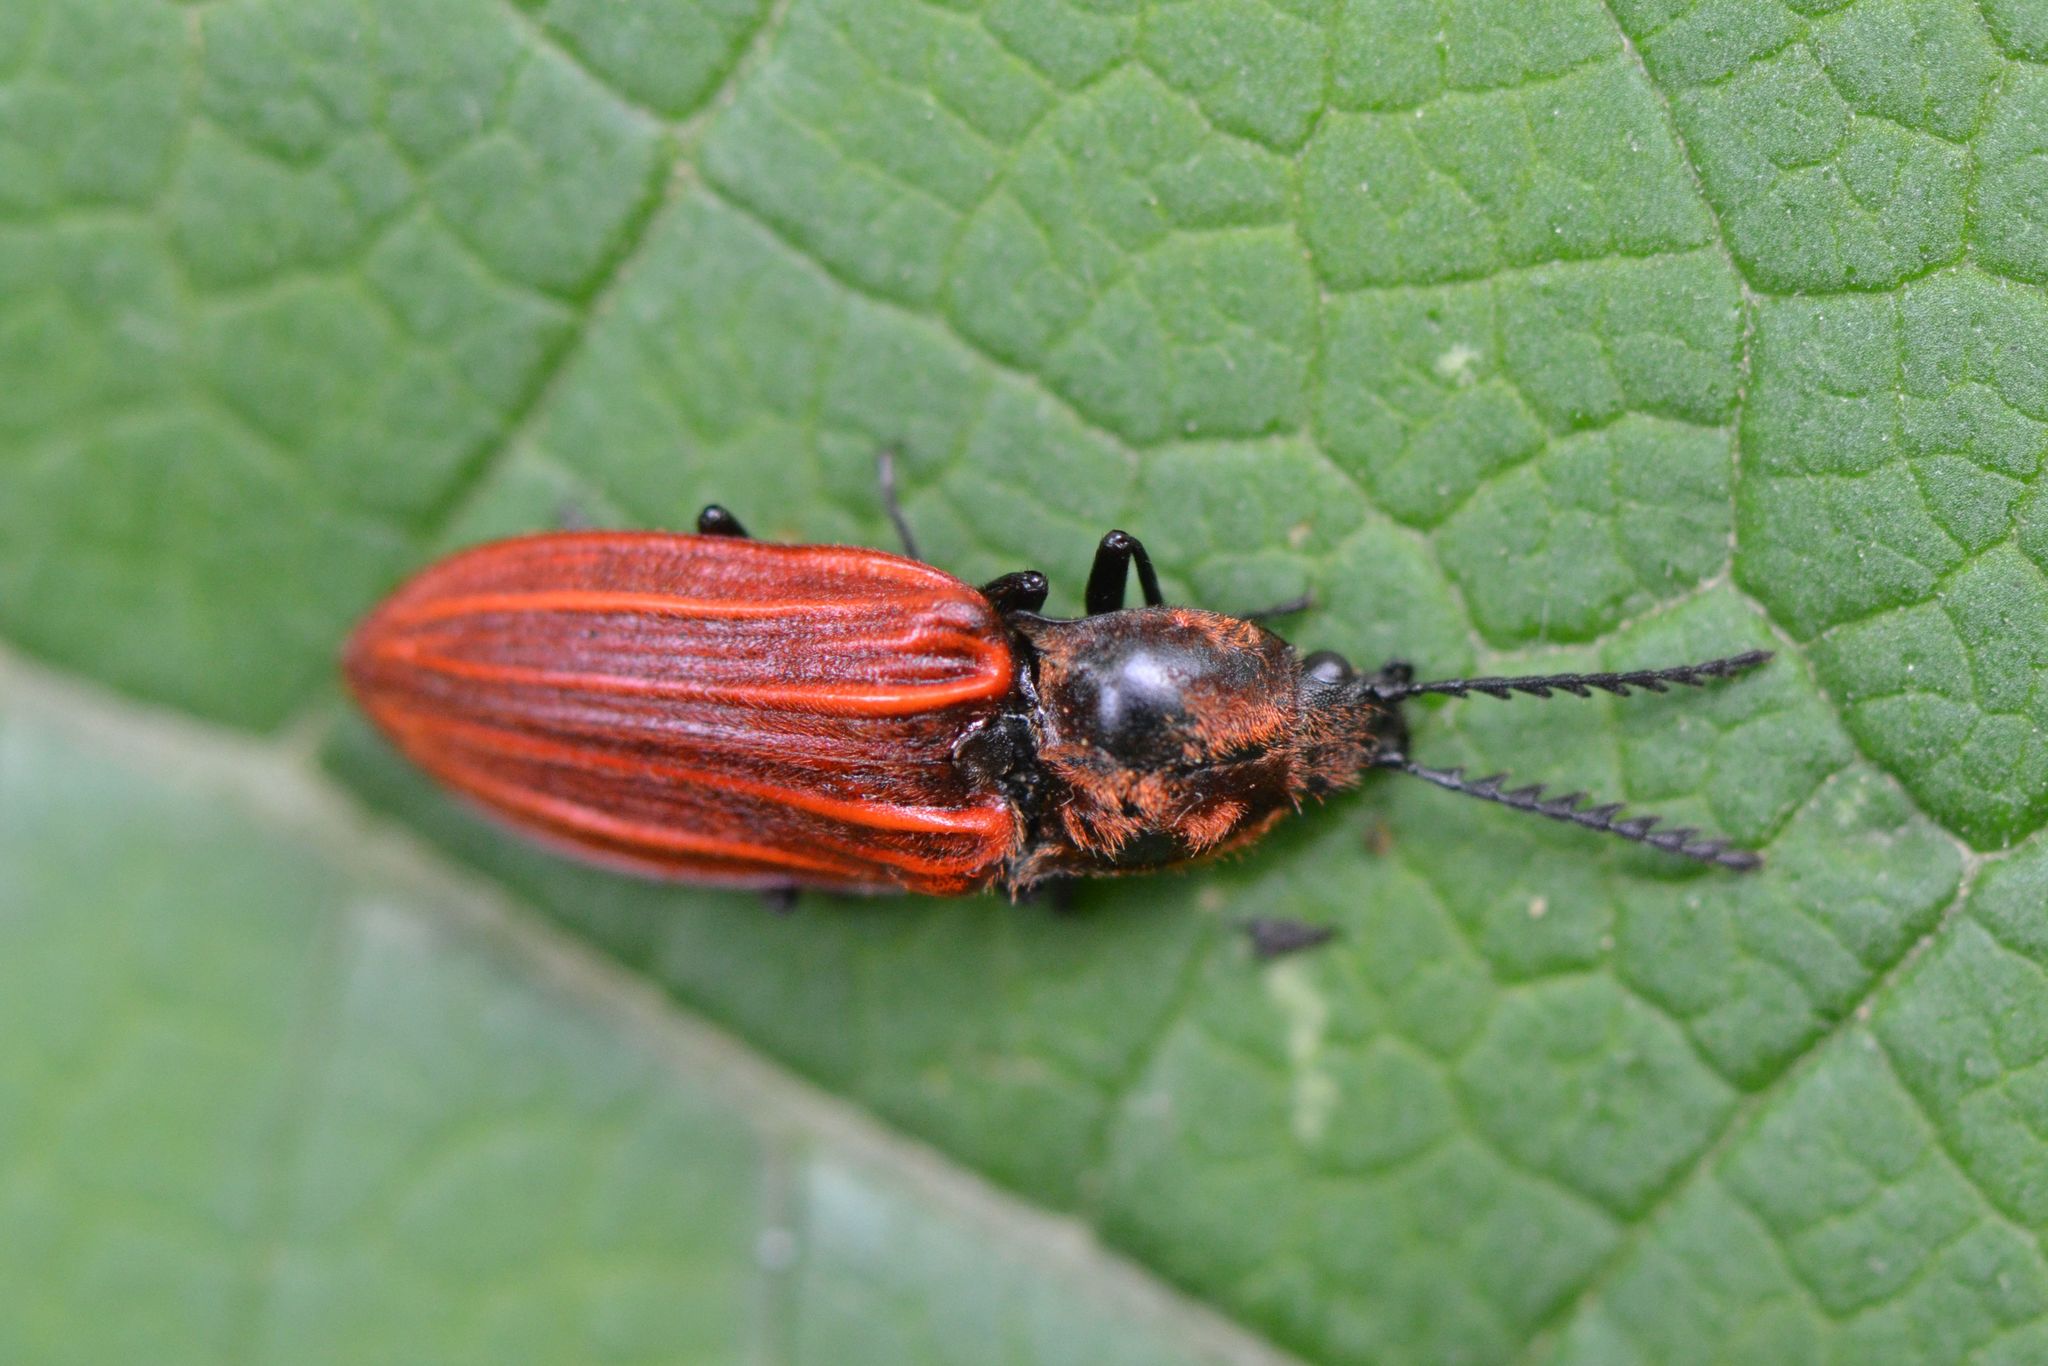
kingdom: Animalia
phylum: Arthropoda
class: Insecta
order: Coleoptera
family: Elateridae
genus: Anostirus
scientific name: Anostirus purpureus
